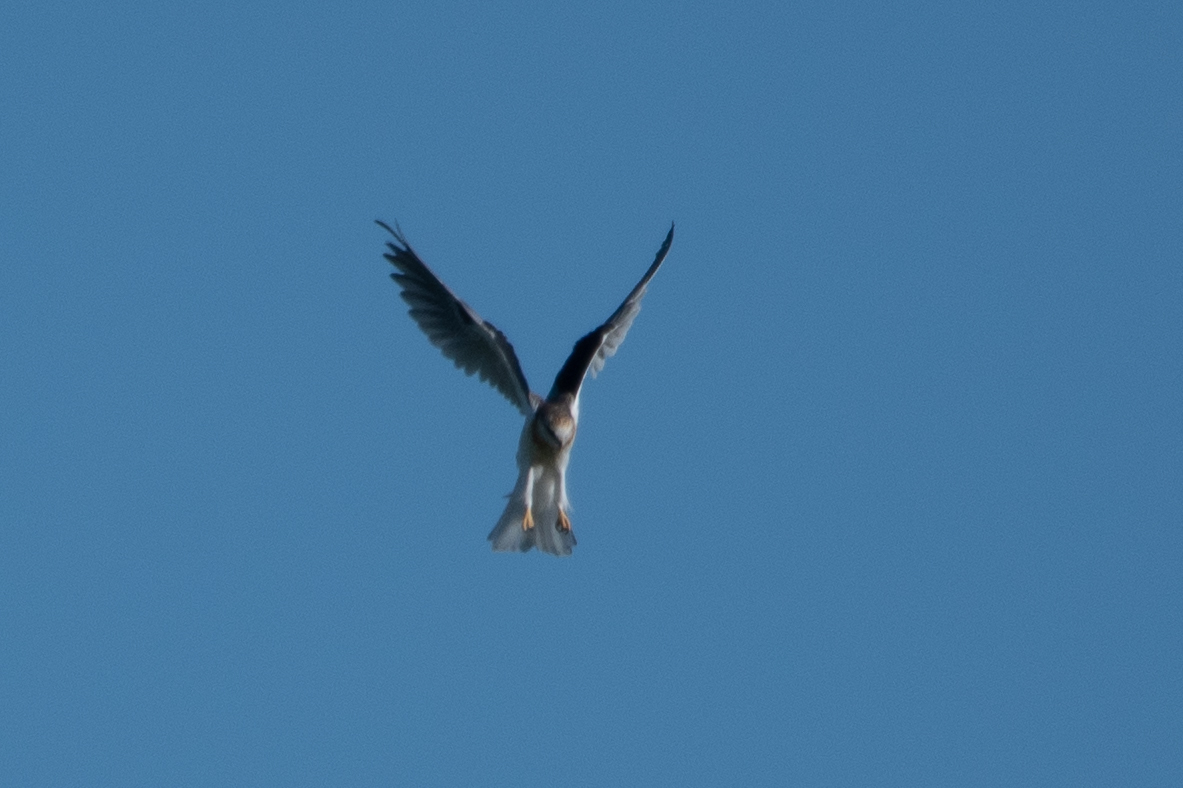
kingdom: Animalia
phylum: Chordata
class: Aves
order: Accipitriformes
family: Accipitridae
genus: Elanus
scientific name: Elanus leucurus
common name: White-tailed kite
